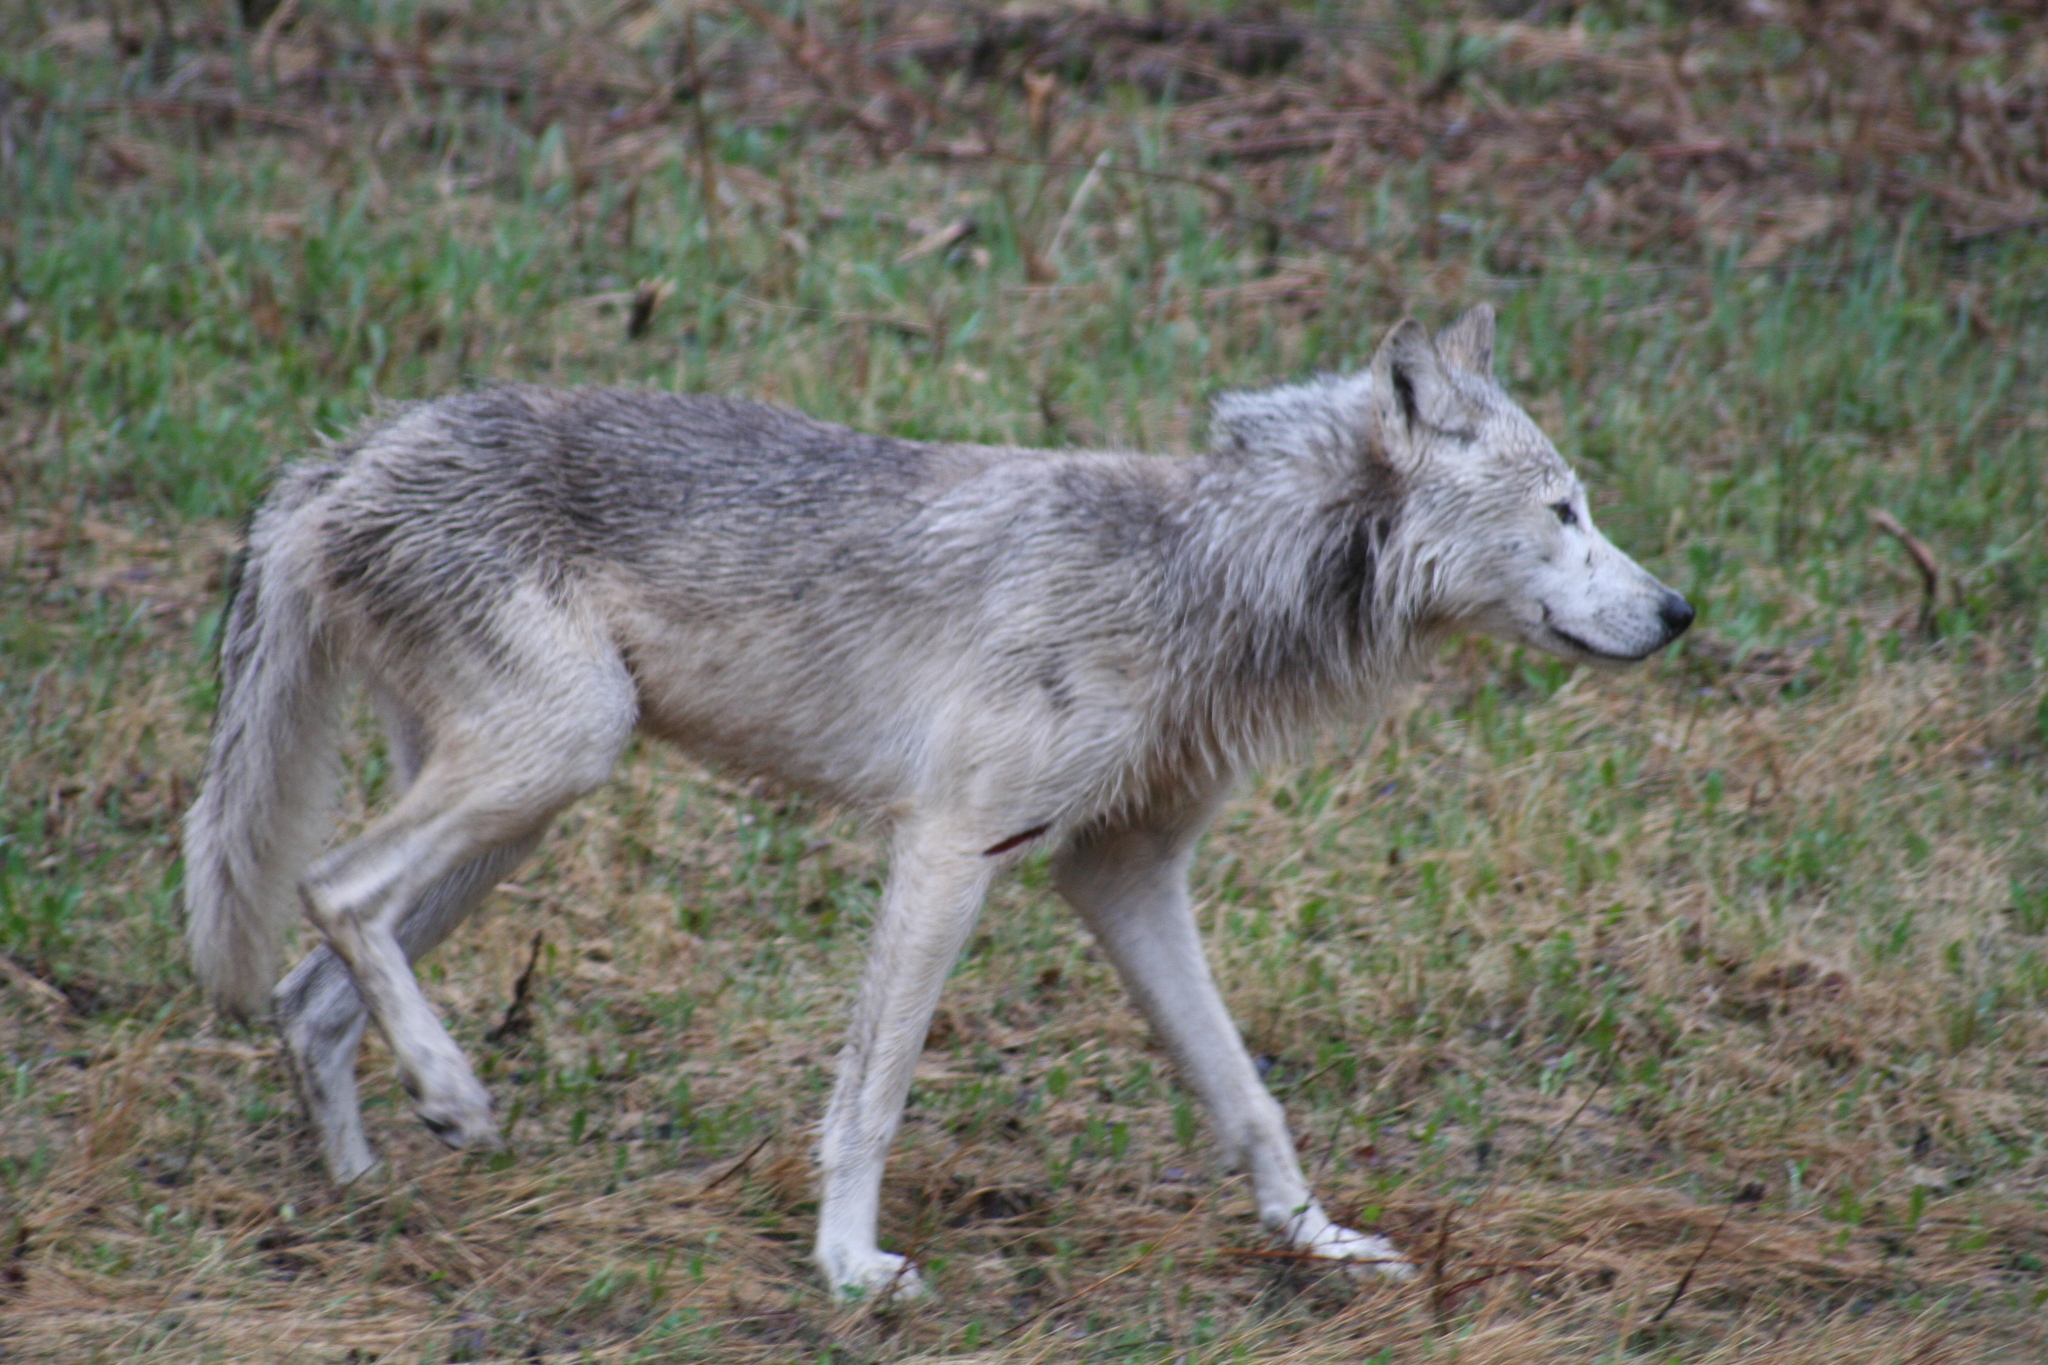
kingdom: Animalia
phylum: Chordata
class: Mammalia
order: Carnivora
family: Canidae
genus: Canis
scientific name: Canis lupus
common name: Gray wolf
